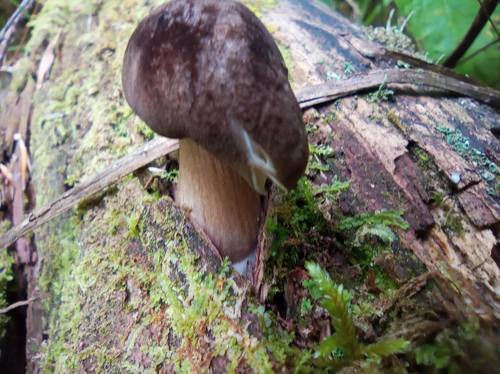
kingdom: Fungi
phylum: Basidiomycota
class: Agaricomycetes
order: Agaricales
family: Pluteaceae
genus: Pluteus
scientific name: Pluteus umbrosus
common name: Velvet shield
